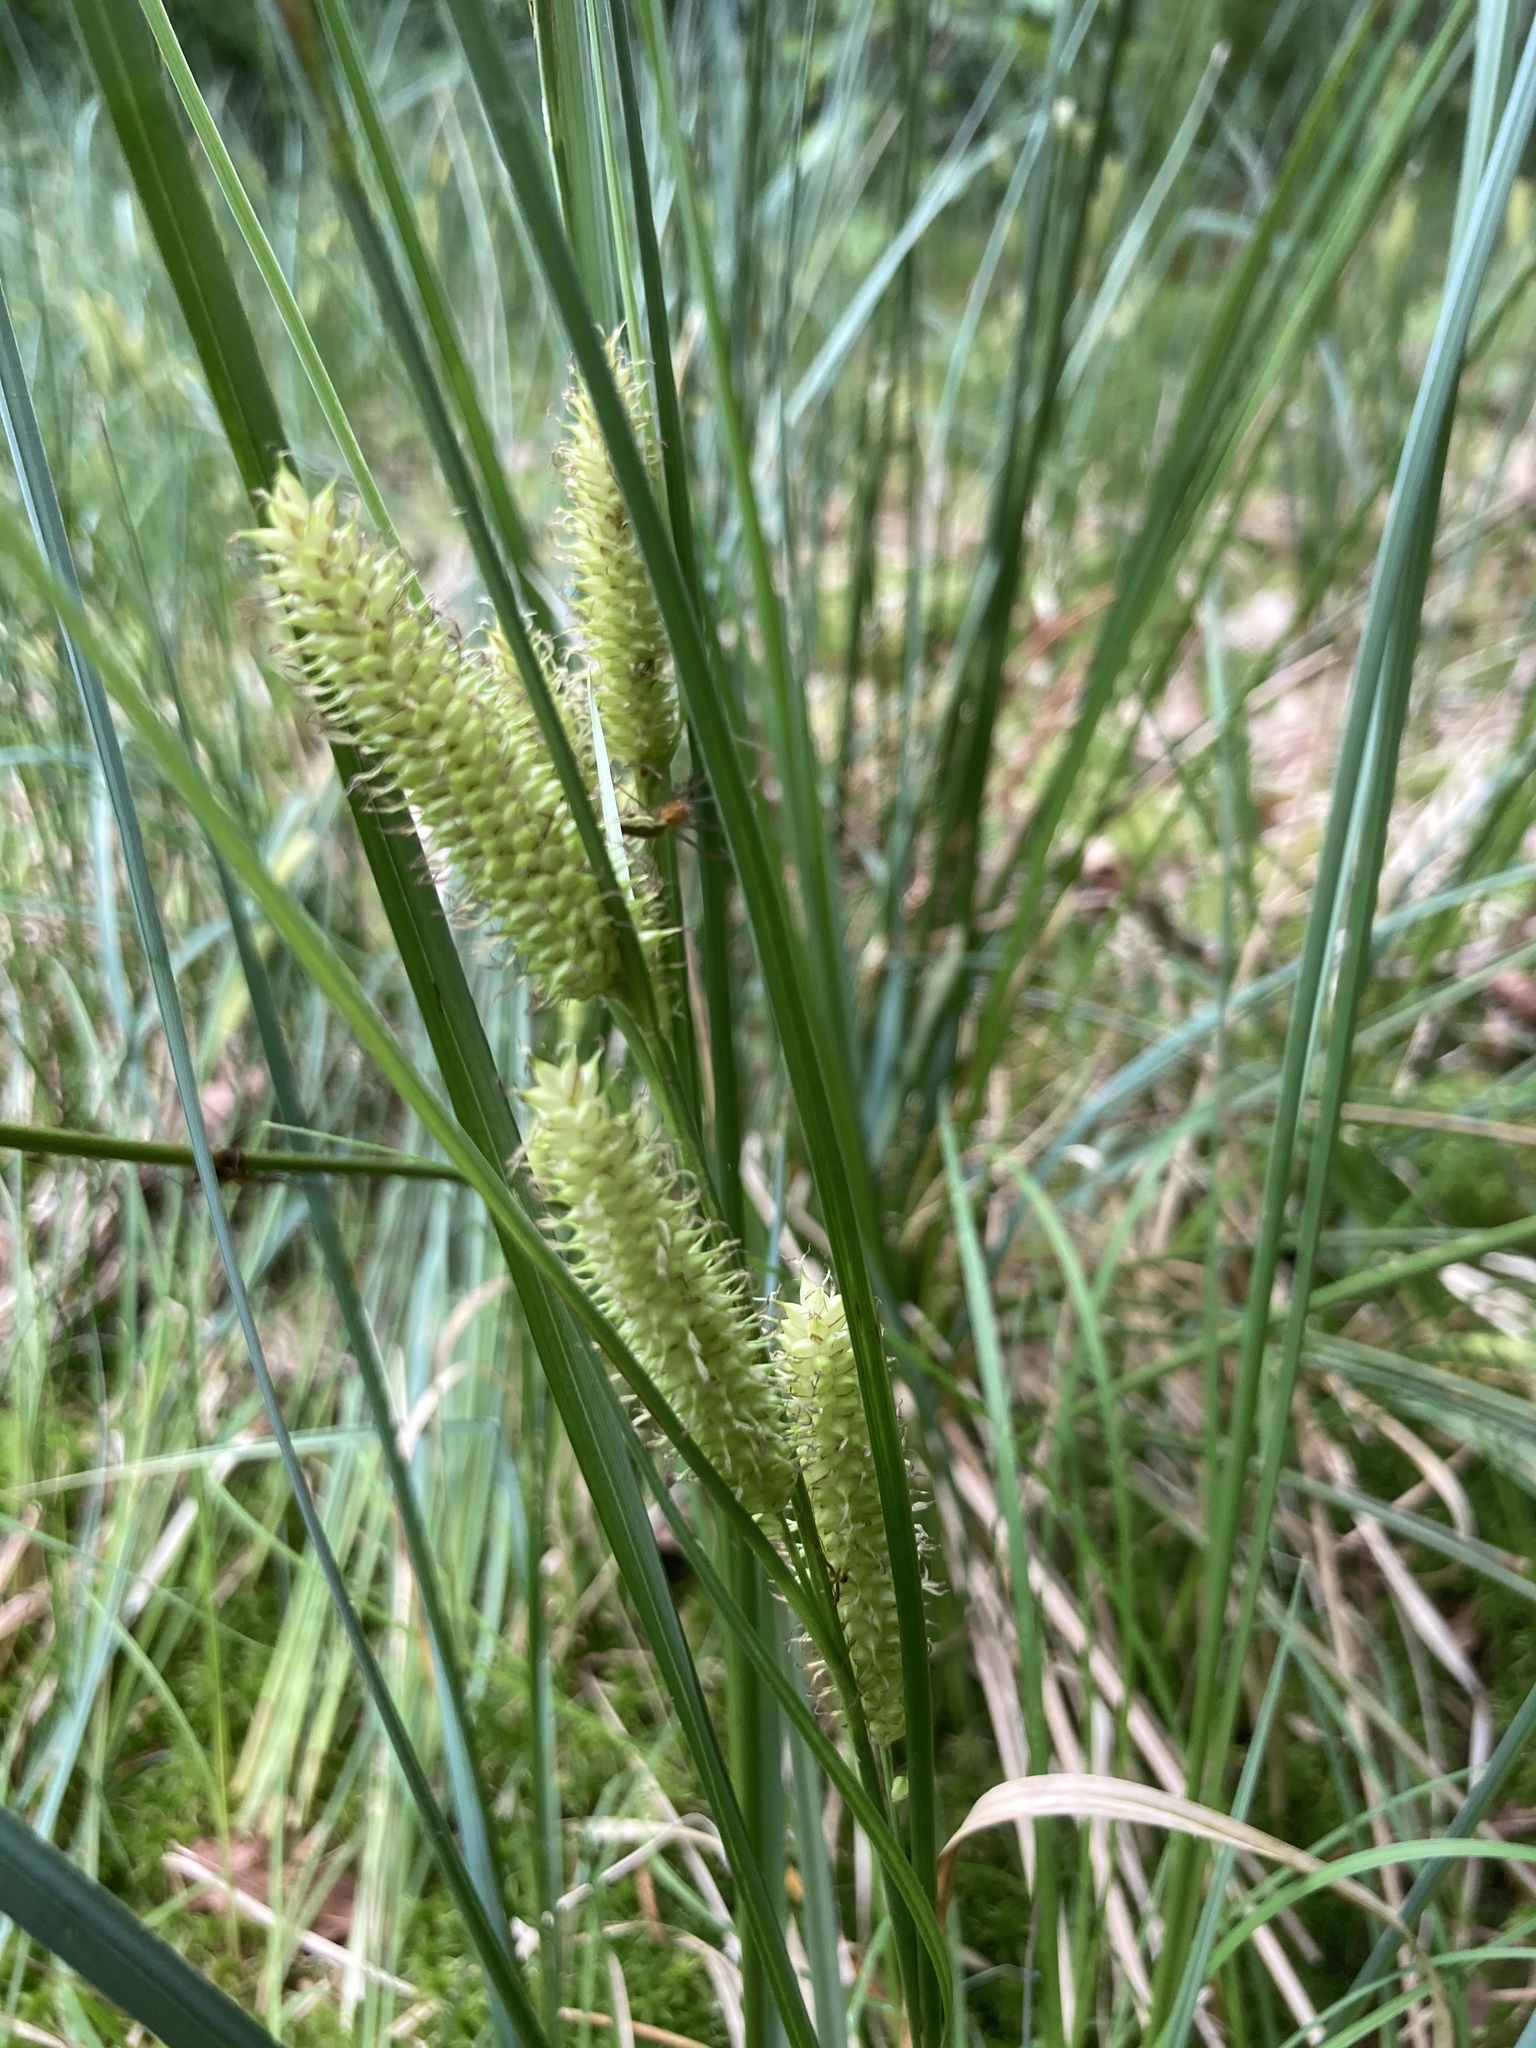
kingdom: Plantae
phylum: Tracheophyta
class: Liliopsida
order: Poales
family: Cyperaceae
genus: Carex
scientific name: Carex rostrata
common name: Bottle sedge
